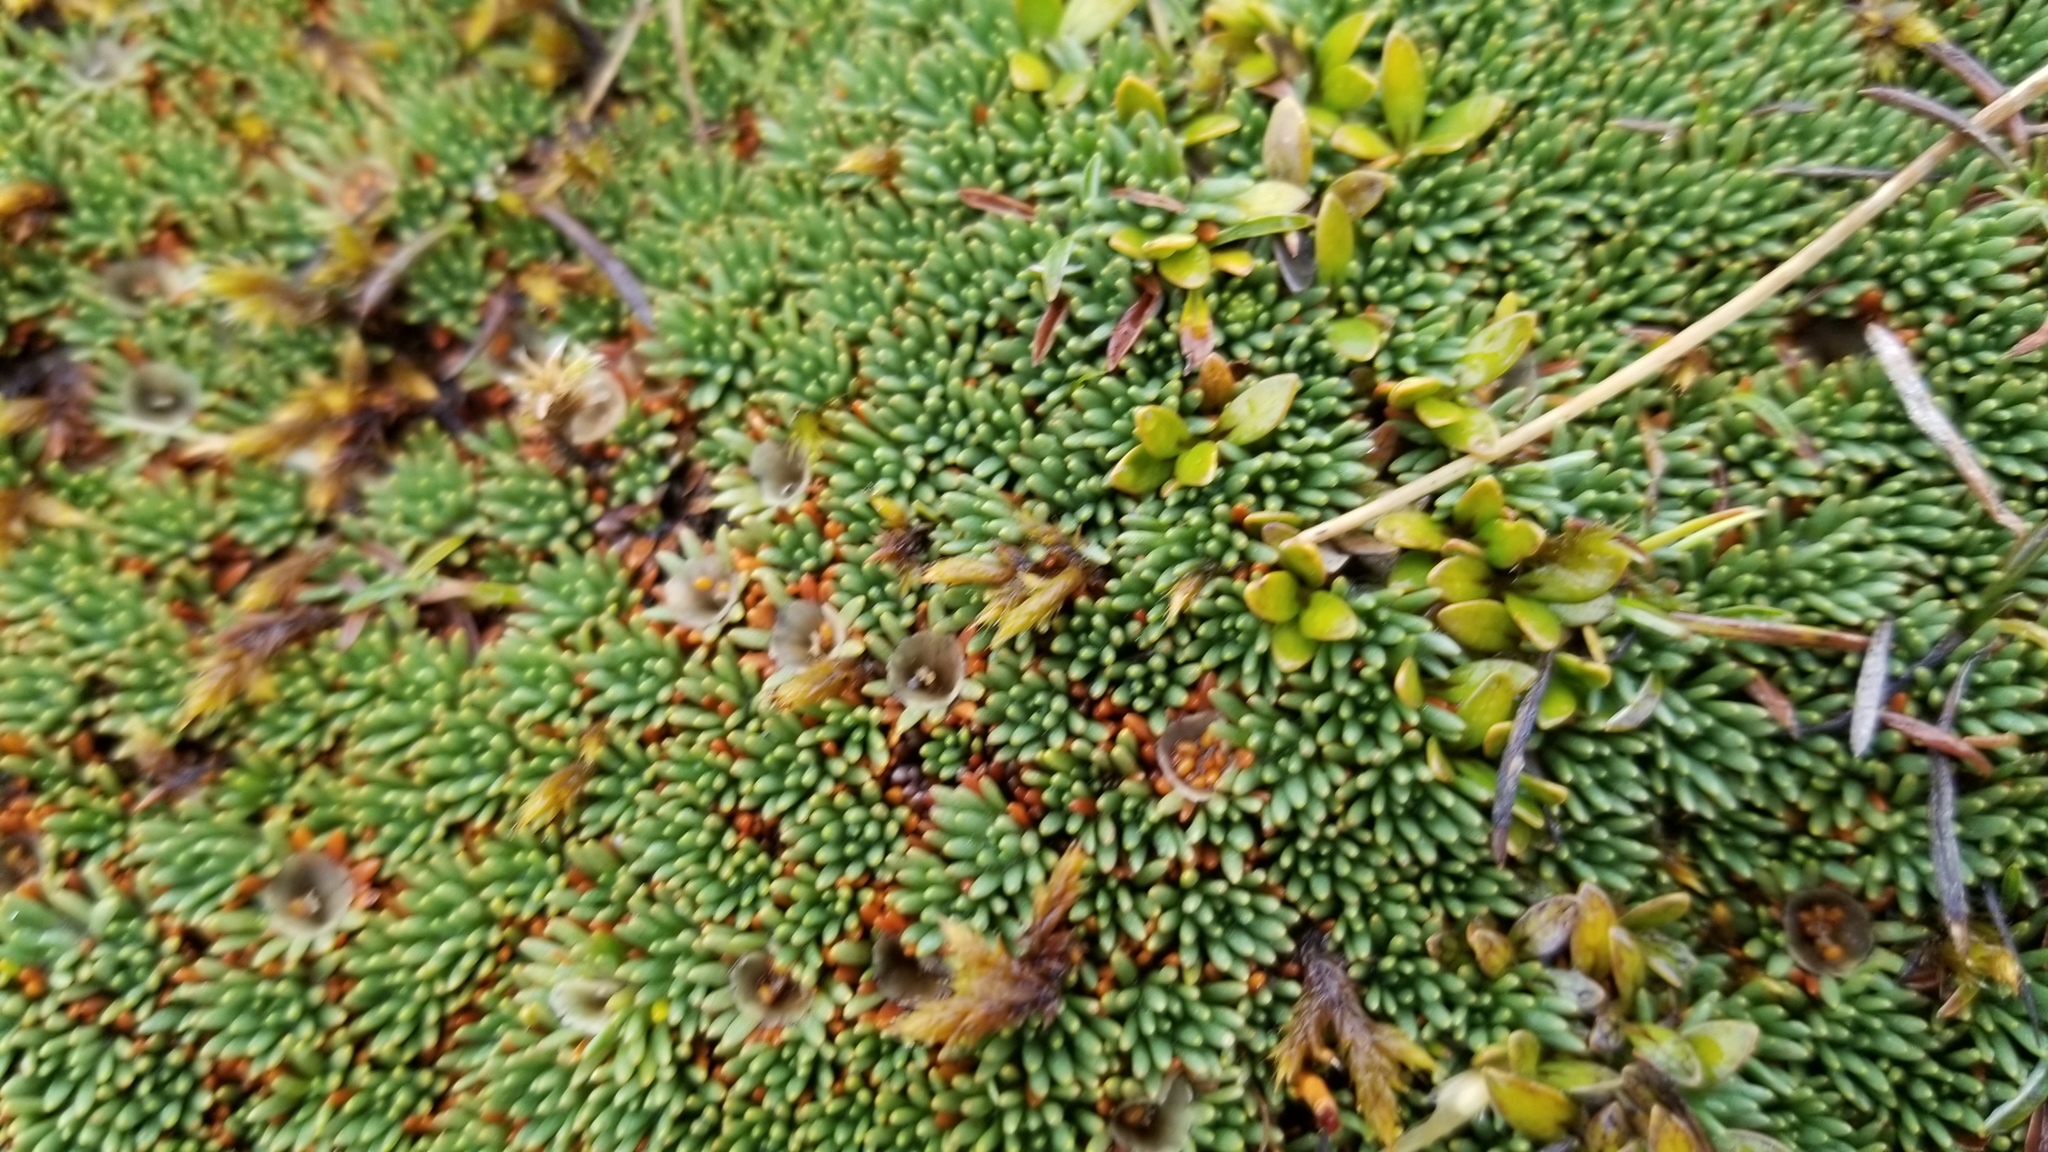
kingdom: Plantae
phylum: Tracheophyta
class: Magnoliopsida
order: Asterales
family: Stylidiaceae
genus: Donatia
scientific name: Donatia novae-zelandiae
